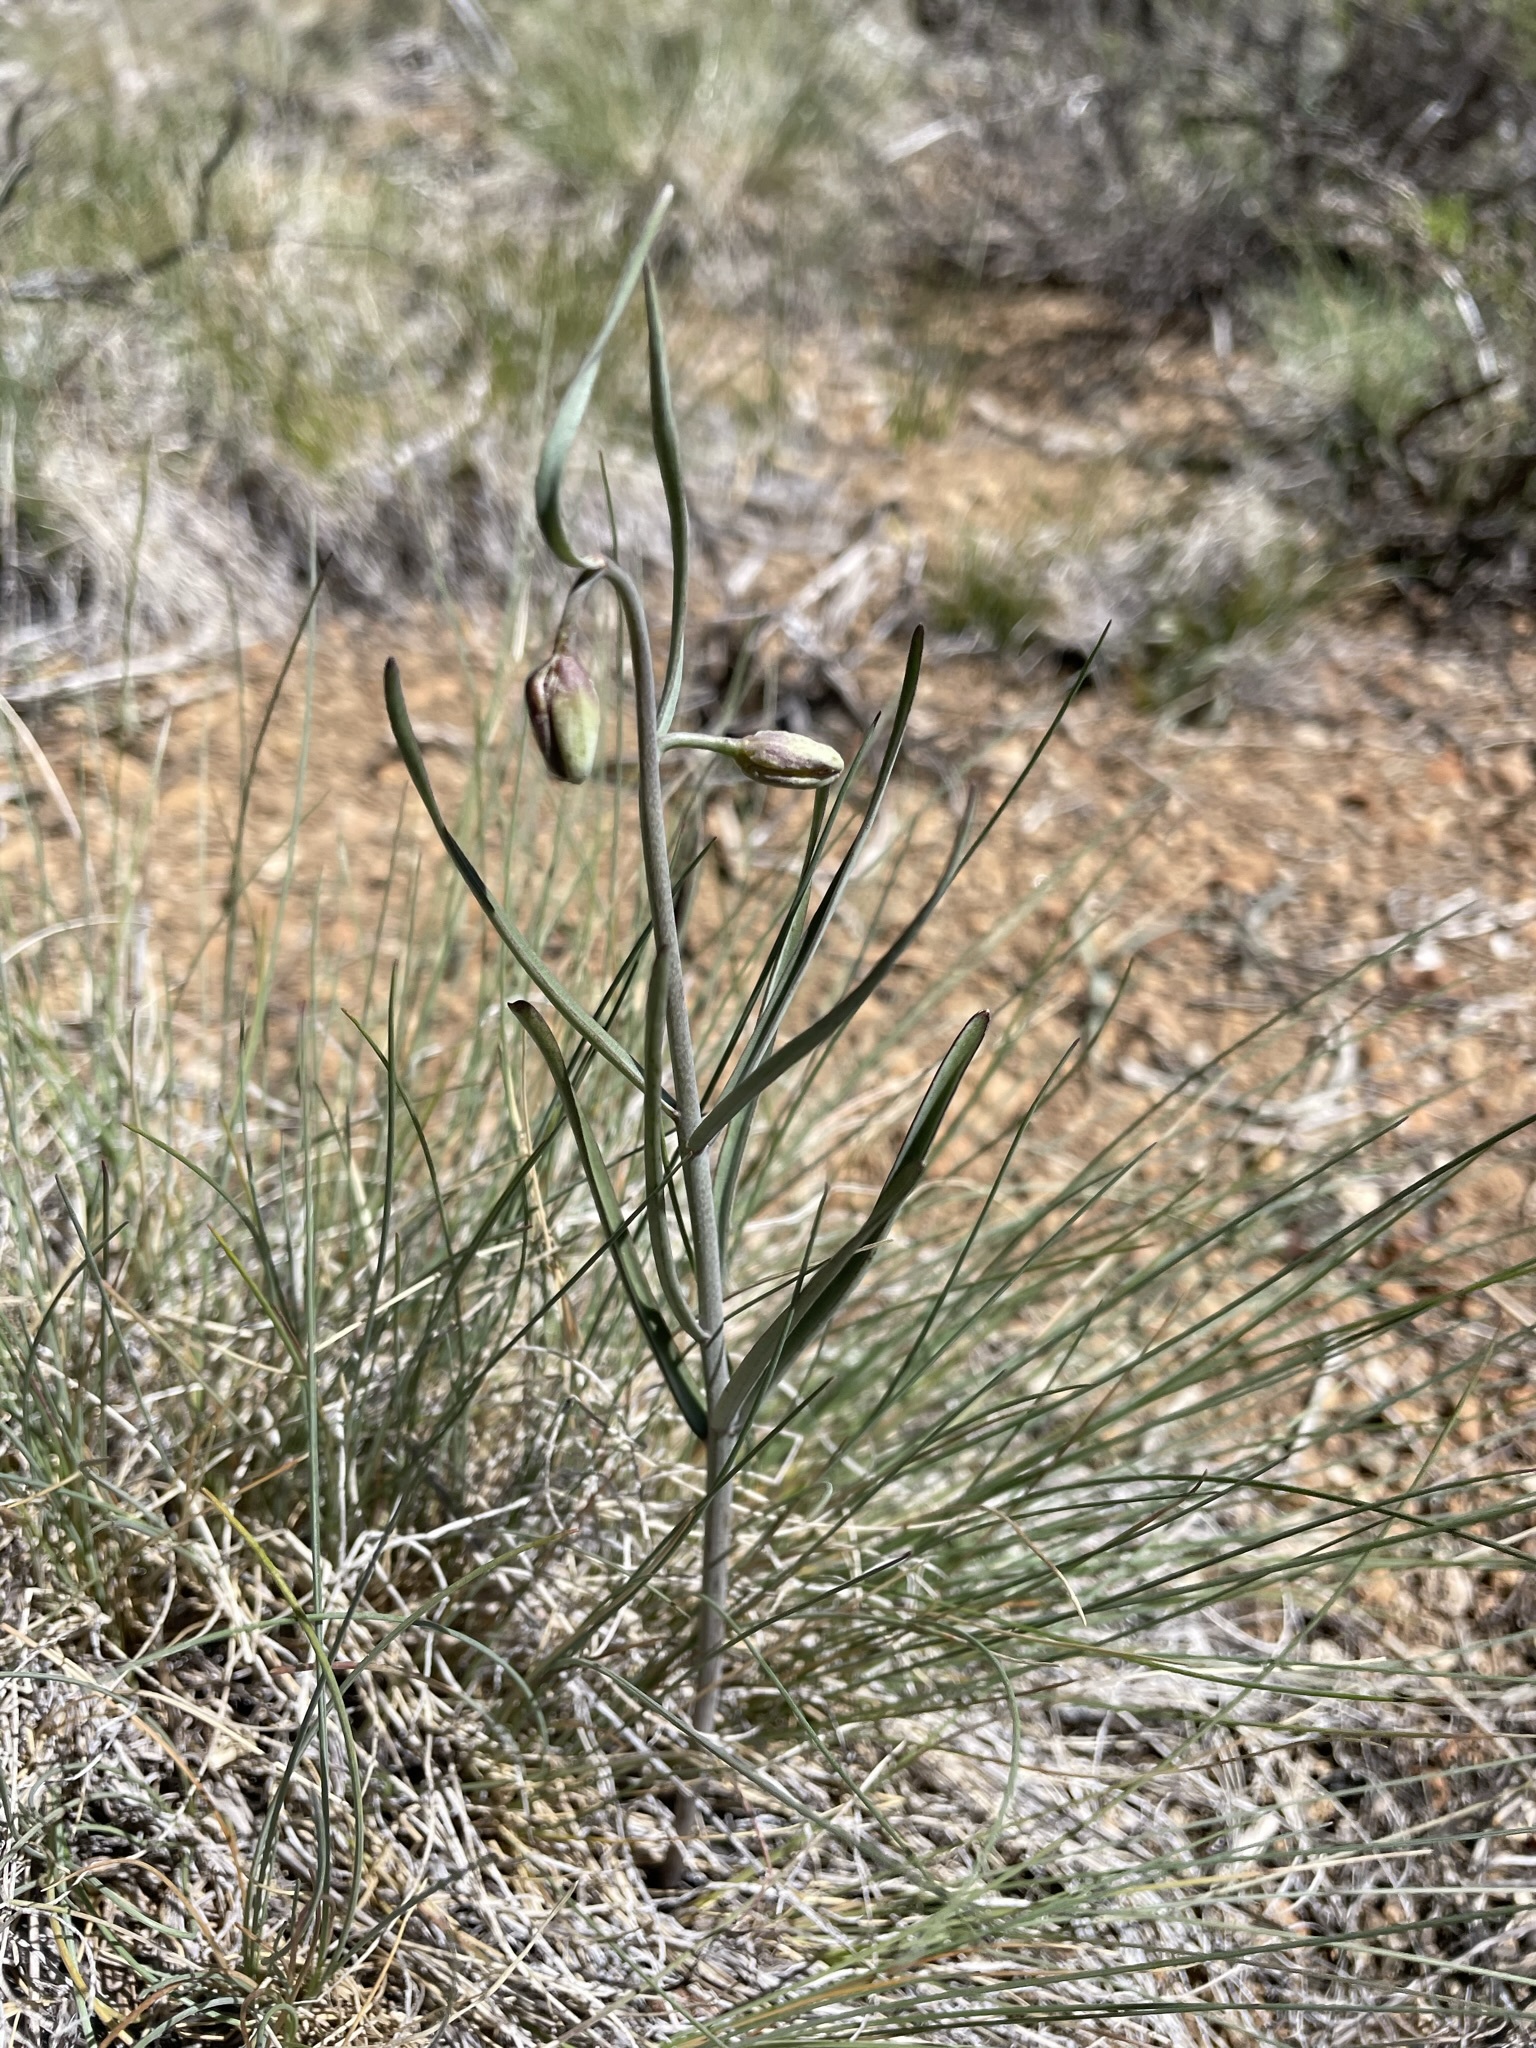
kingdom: Plantae
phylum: Tracheophyta
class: Liliopsida
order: Liliales
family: Liliaceae
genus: Fritillaria
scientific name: Fritillaria atropurpurea
